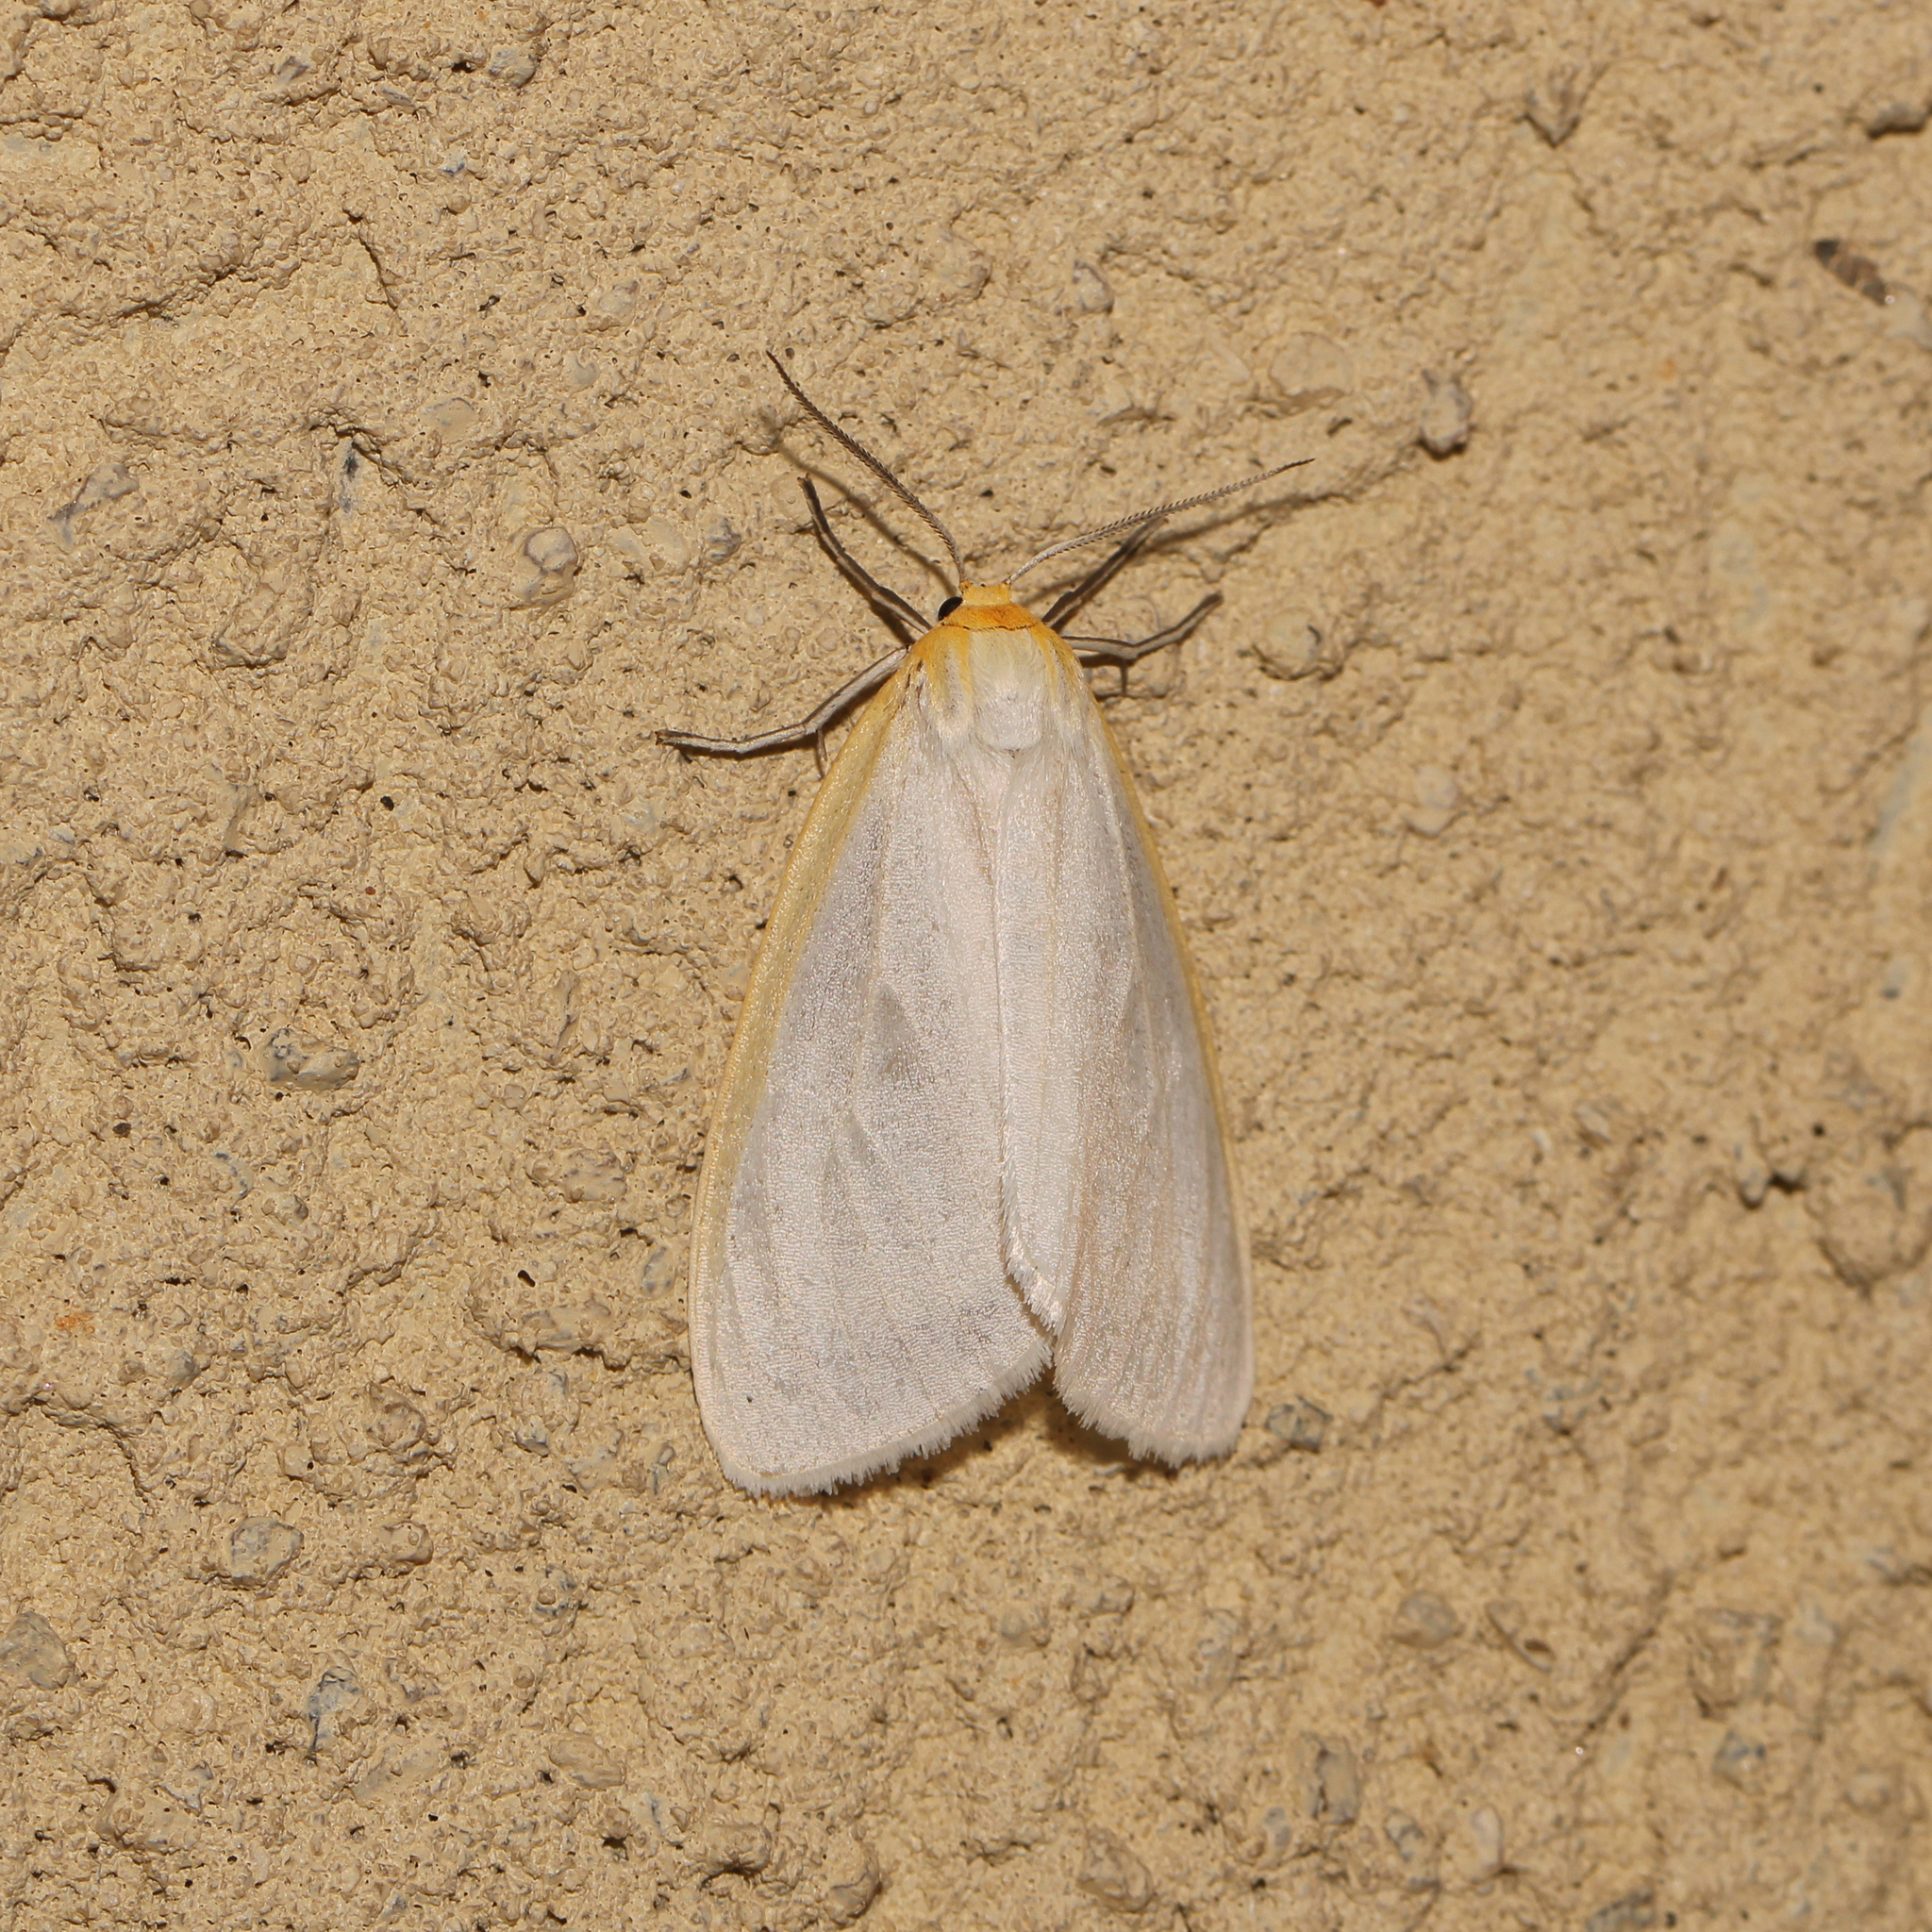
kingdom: Animalia
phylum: Arthropoda
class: Insecta
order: Lepidoptera
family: Erebidae
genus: Cycnia
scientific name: Cycnia tenera
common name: Delicate cycnia moth
